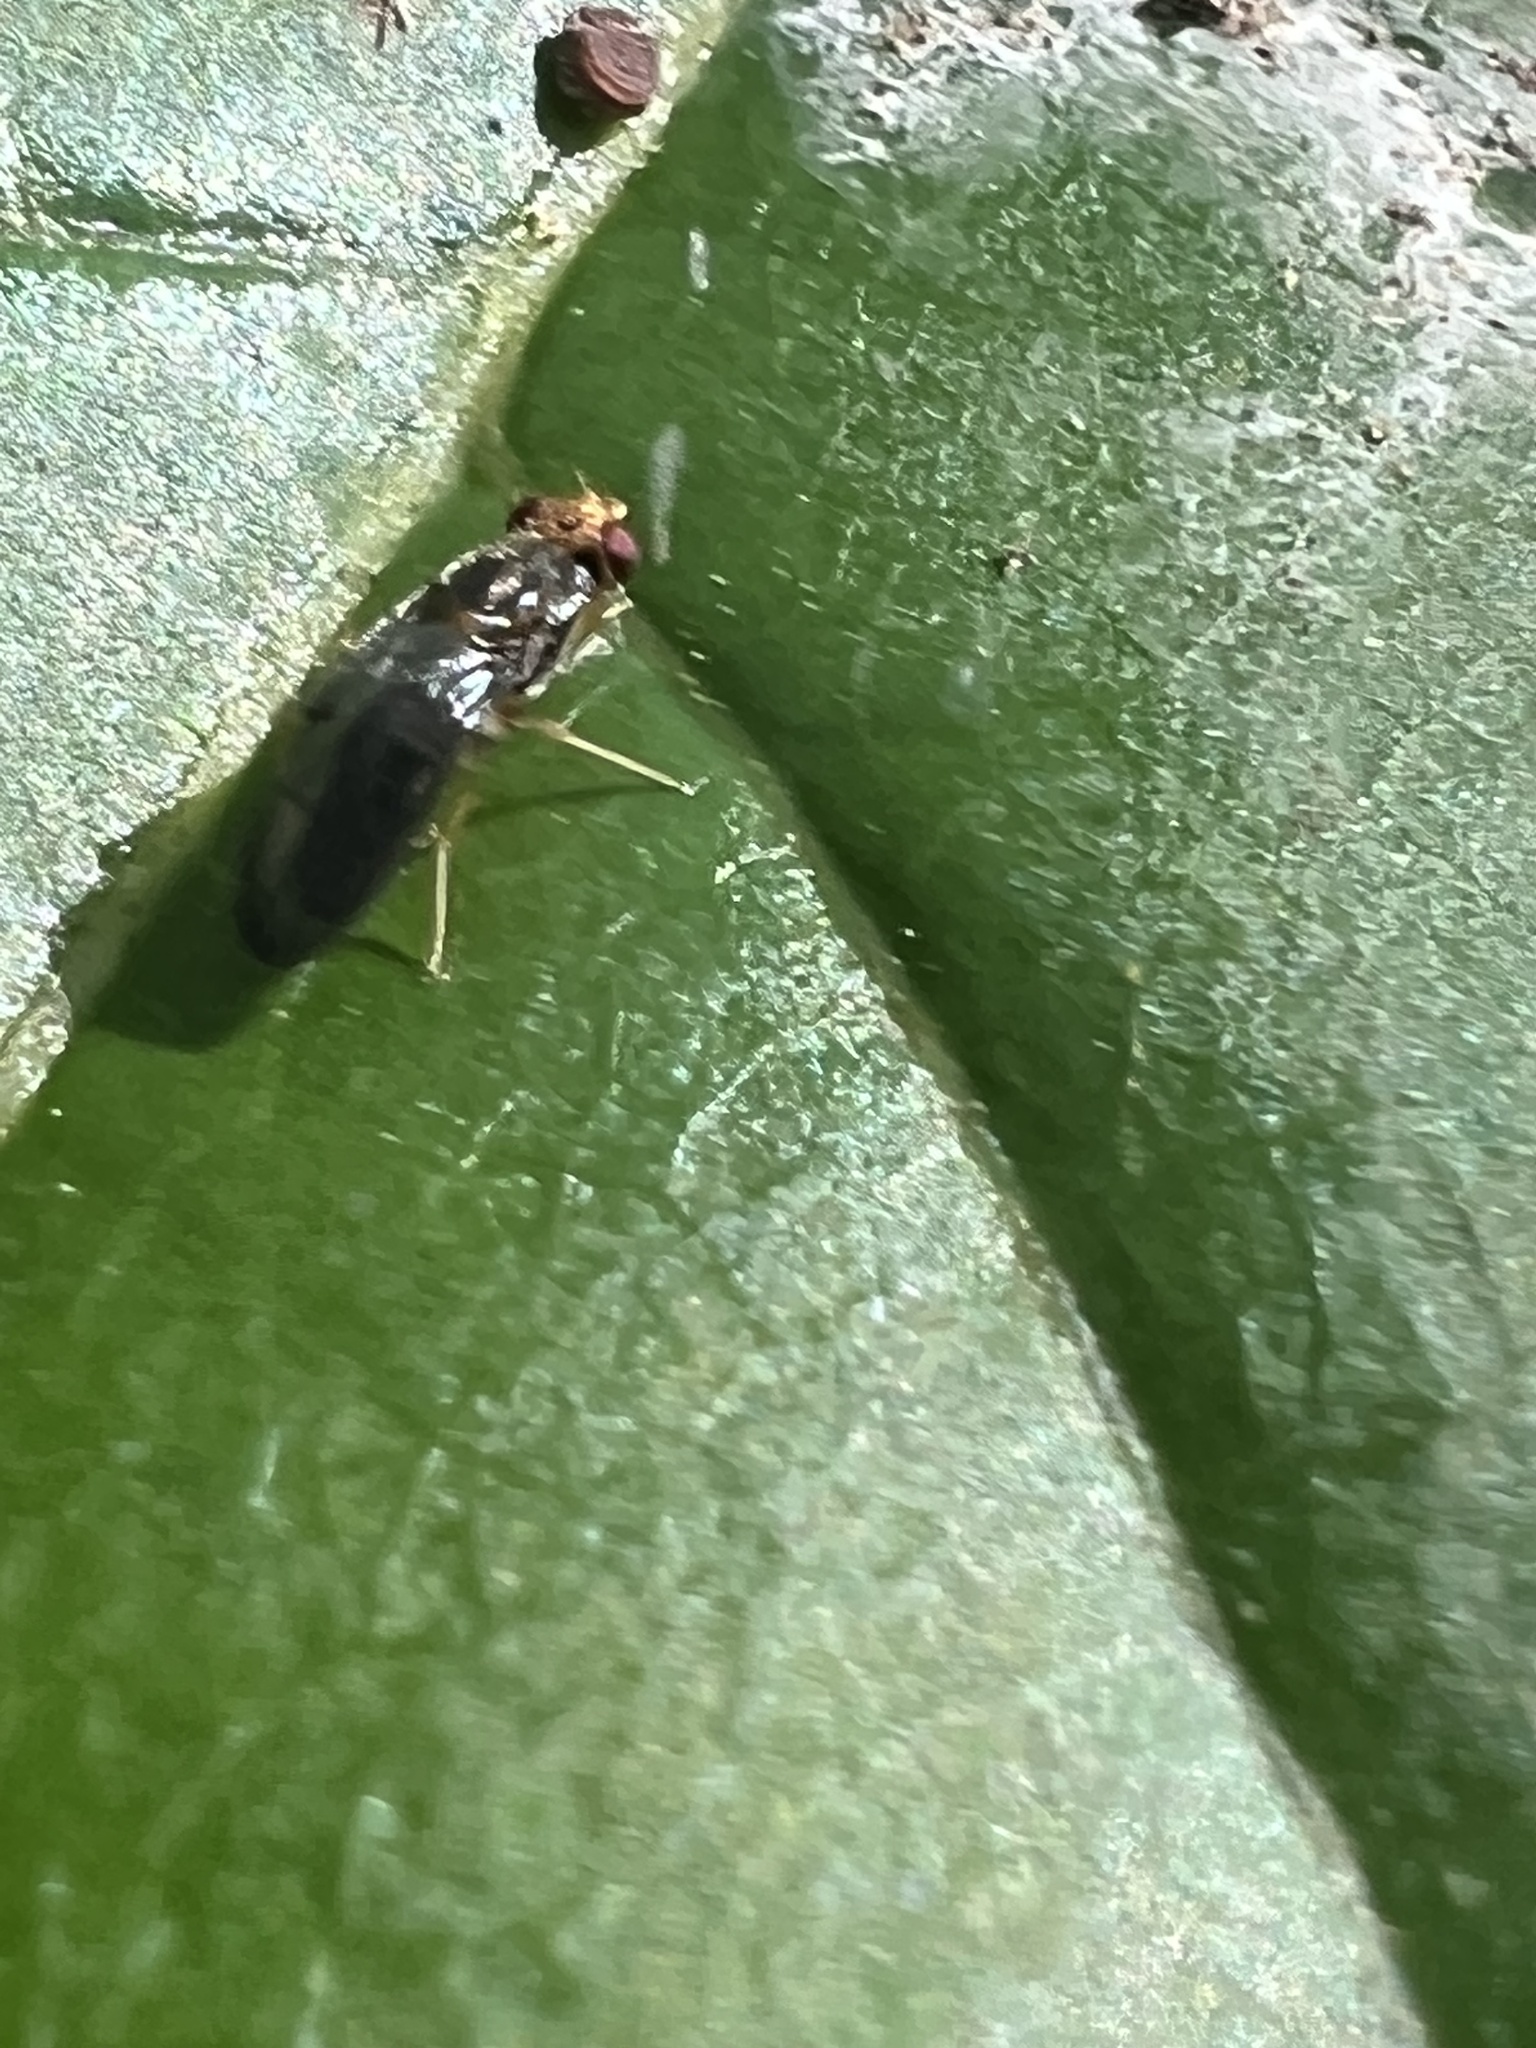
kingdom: Animalia
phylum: Arthropoda
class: Insecta
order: Diptera
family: Psilidae
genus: Chyliza
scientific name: Chyliza notata
